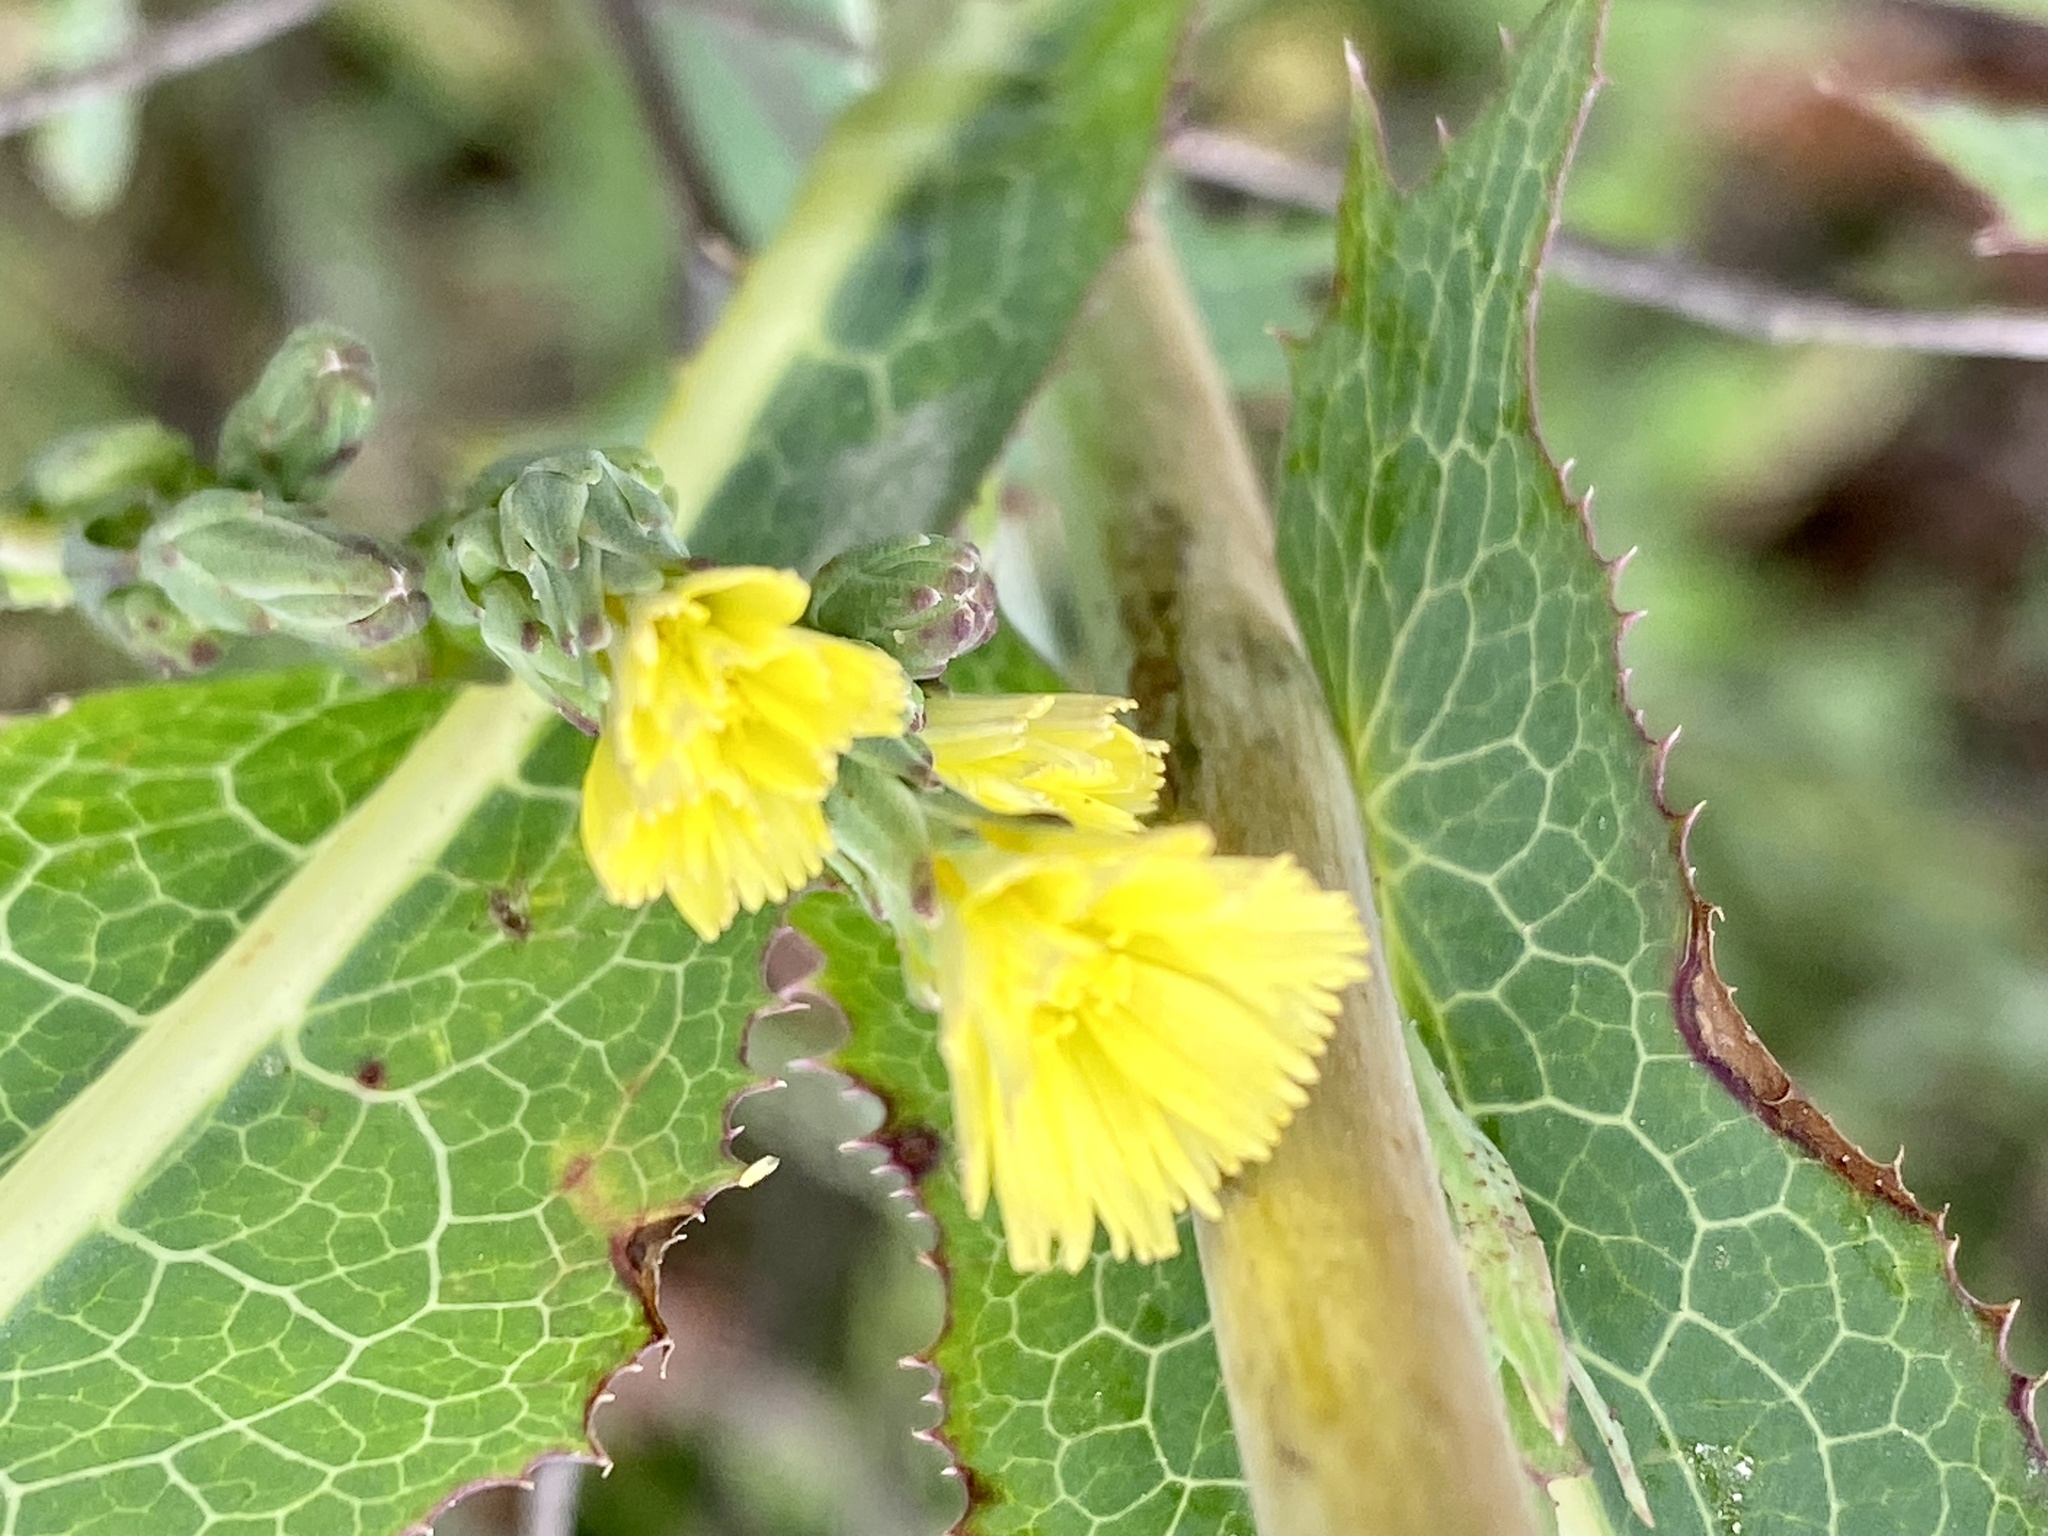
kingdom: Plantae
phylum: Tracheophyta
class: Magnoliopsida
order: Asterales
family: Asteraceae
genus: Lactuca
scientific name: Lactuca serriola
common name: Prickly lettuce
